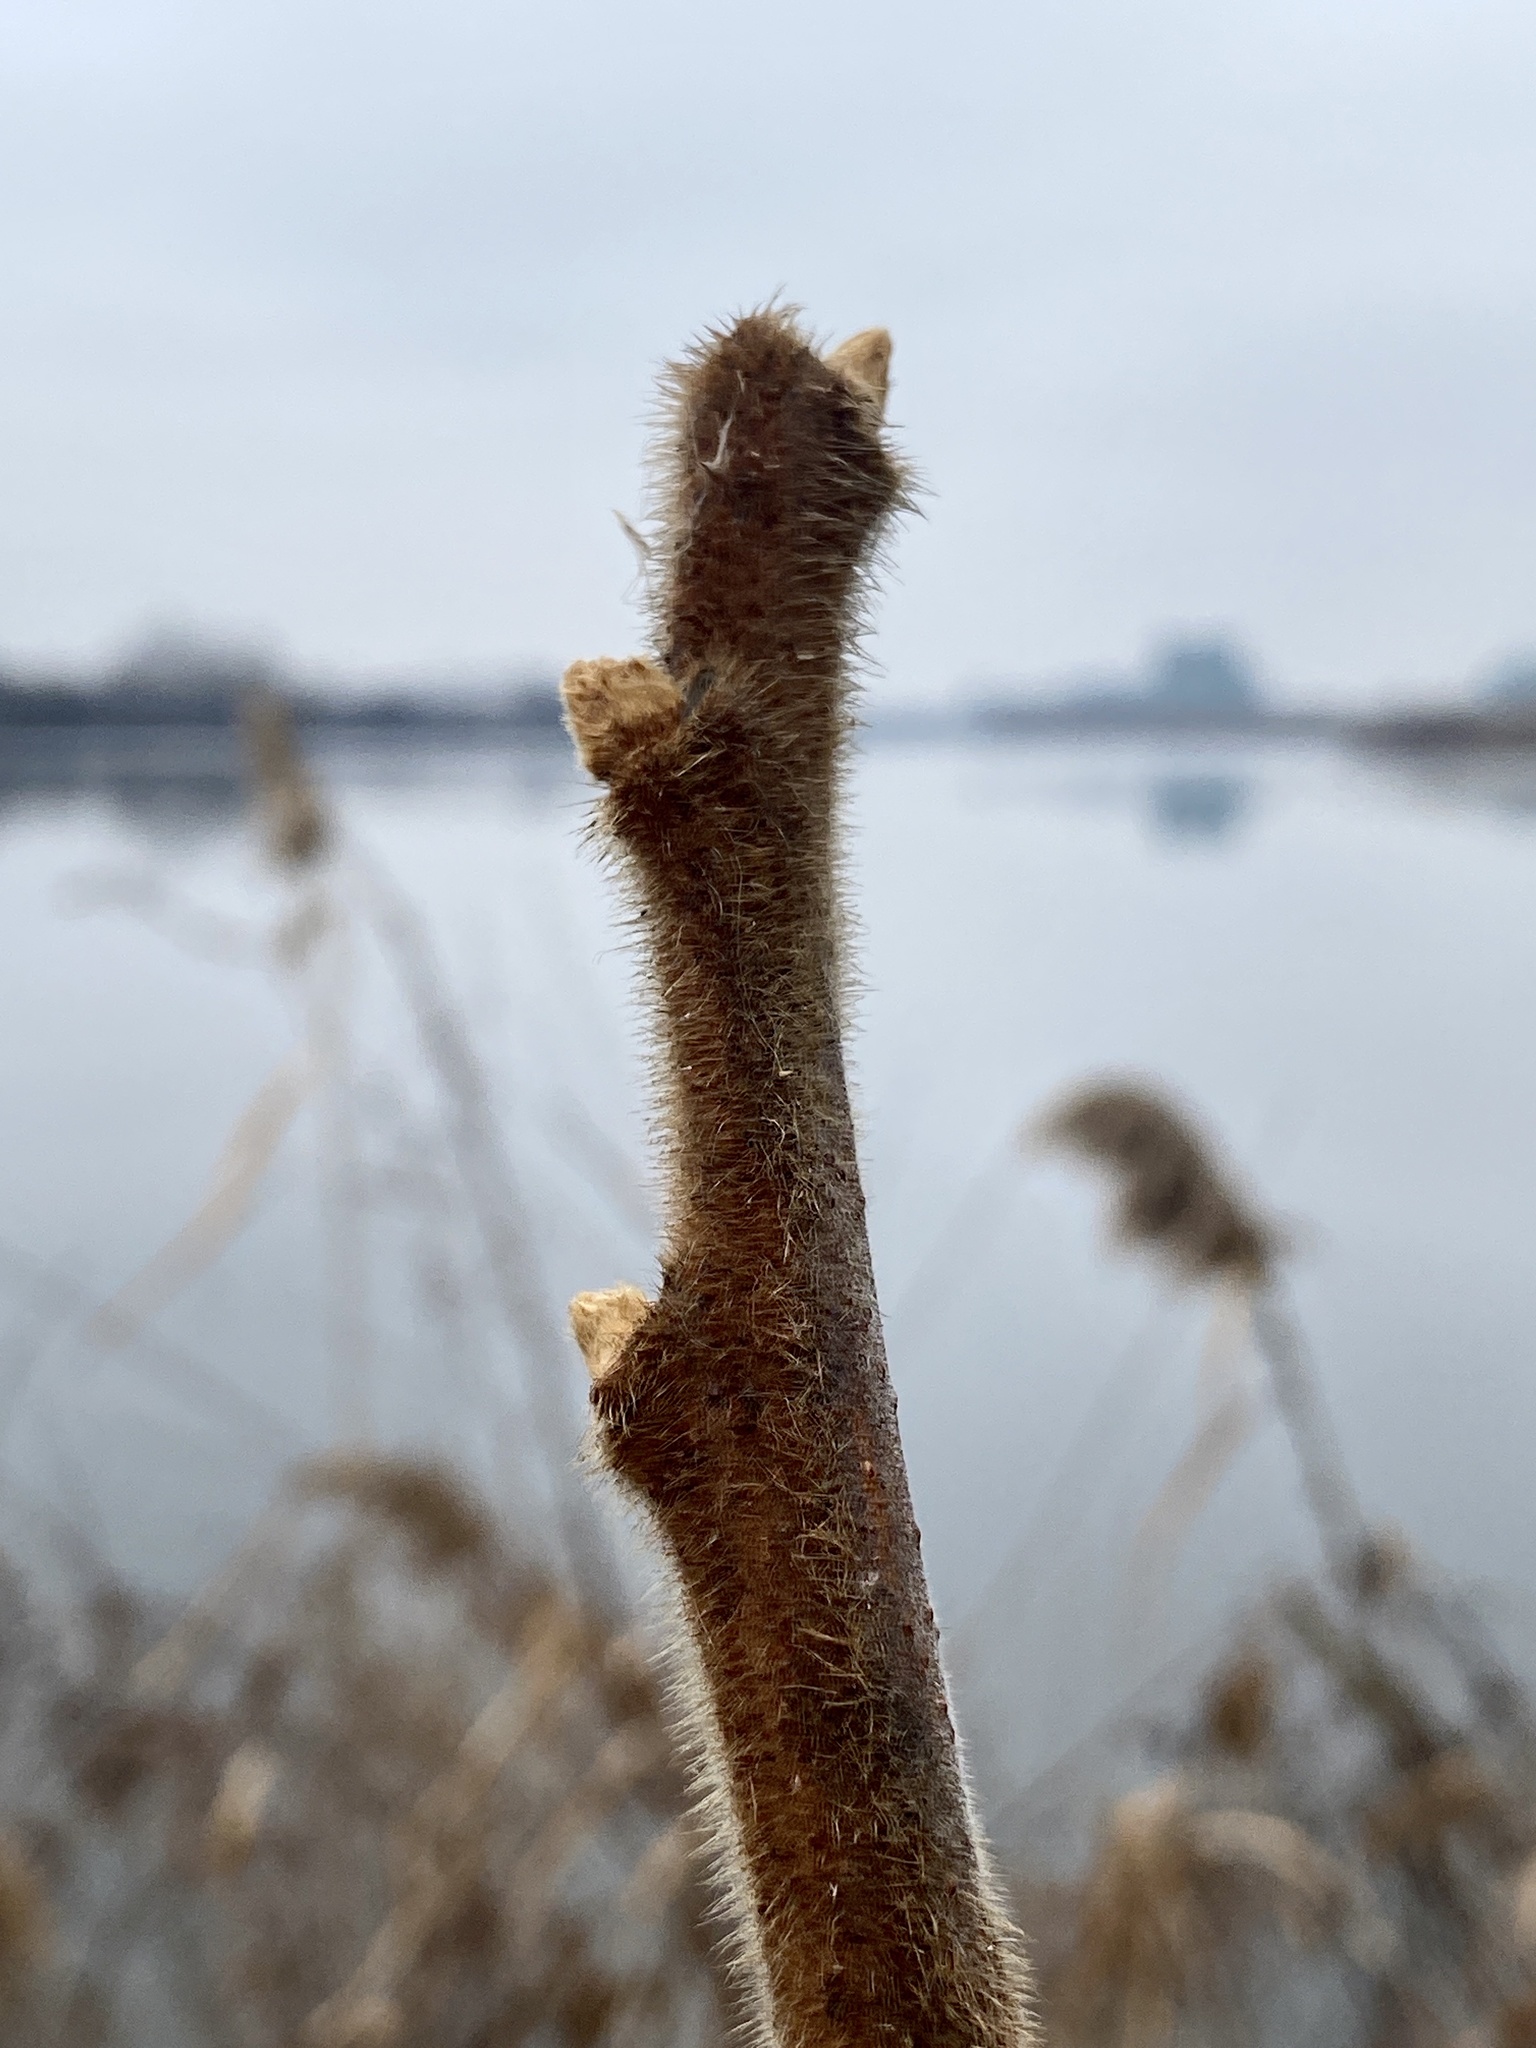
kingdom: Plantae
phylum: Tracheophyta
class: Magnoliopsida
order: Sapindales
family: Anacardiaceae
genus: Rhus
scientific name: Rhus typhina
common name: Staghorn sumac
